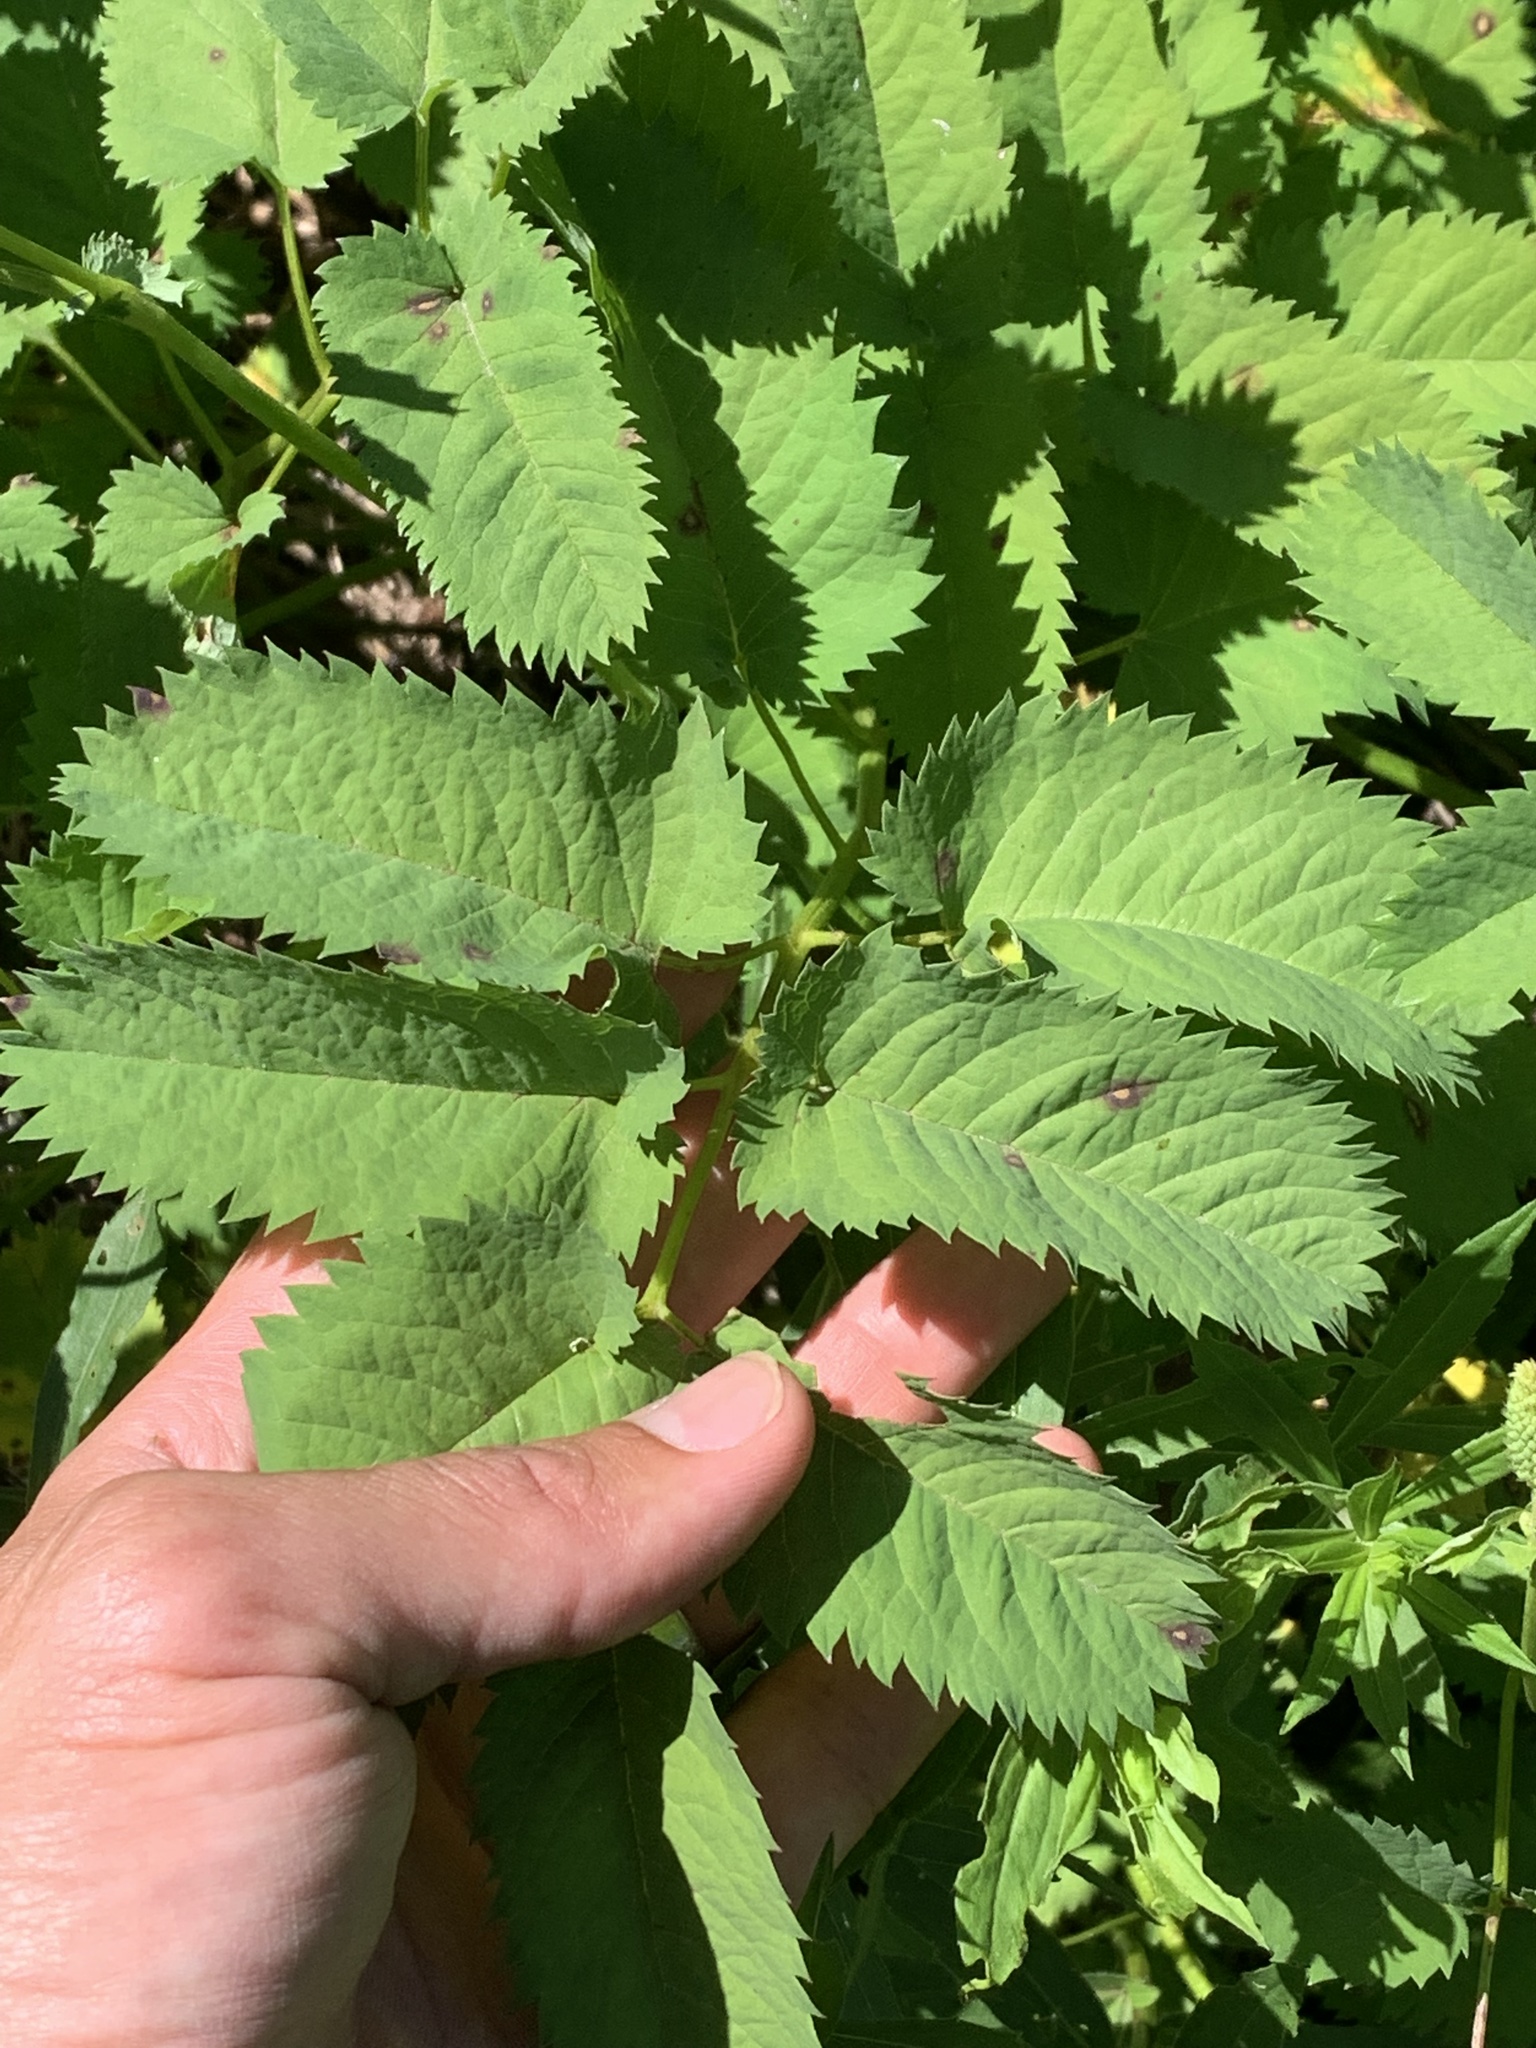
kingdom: Plantae
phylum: Tracheophyta
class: Magnoliopsida
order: Rosales
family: Rosaceae
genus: Sanguisorba
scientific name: Sanguisorba stipulata
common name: Sitka burnet
